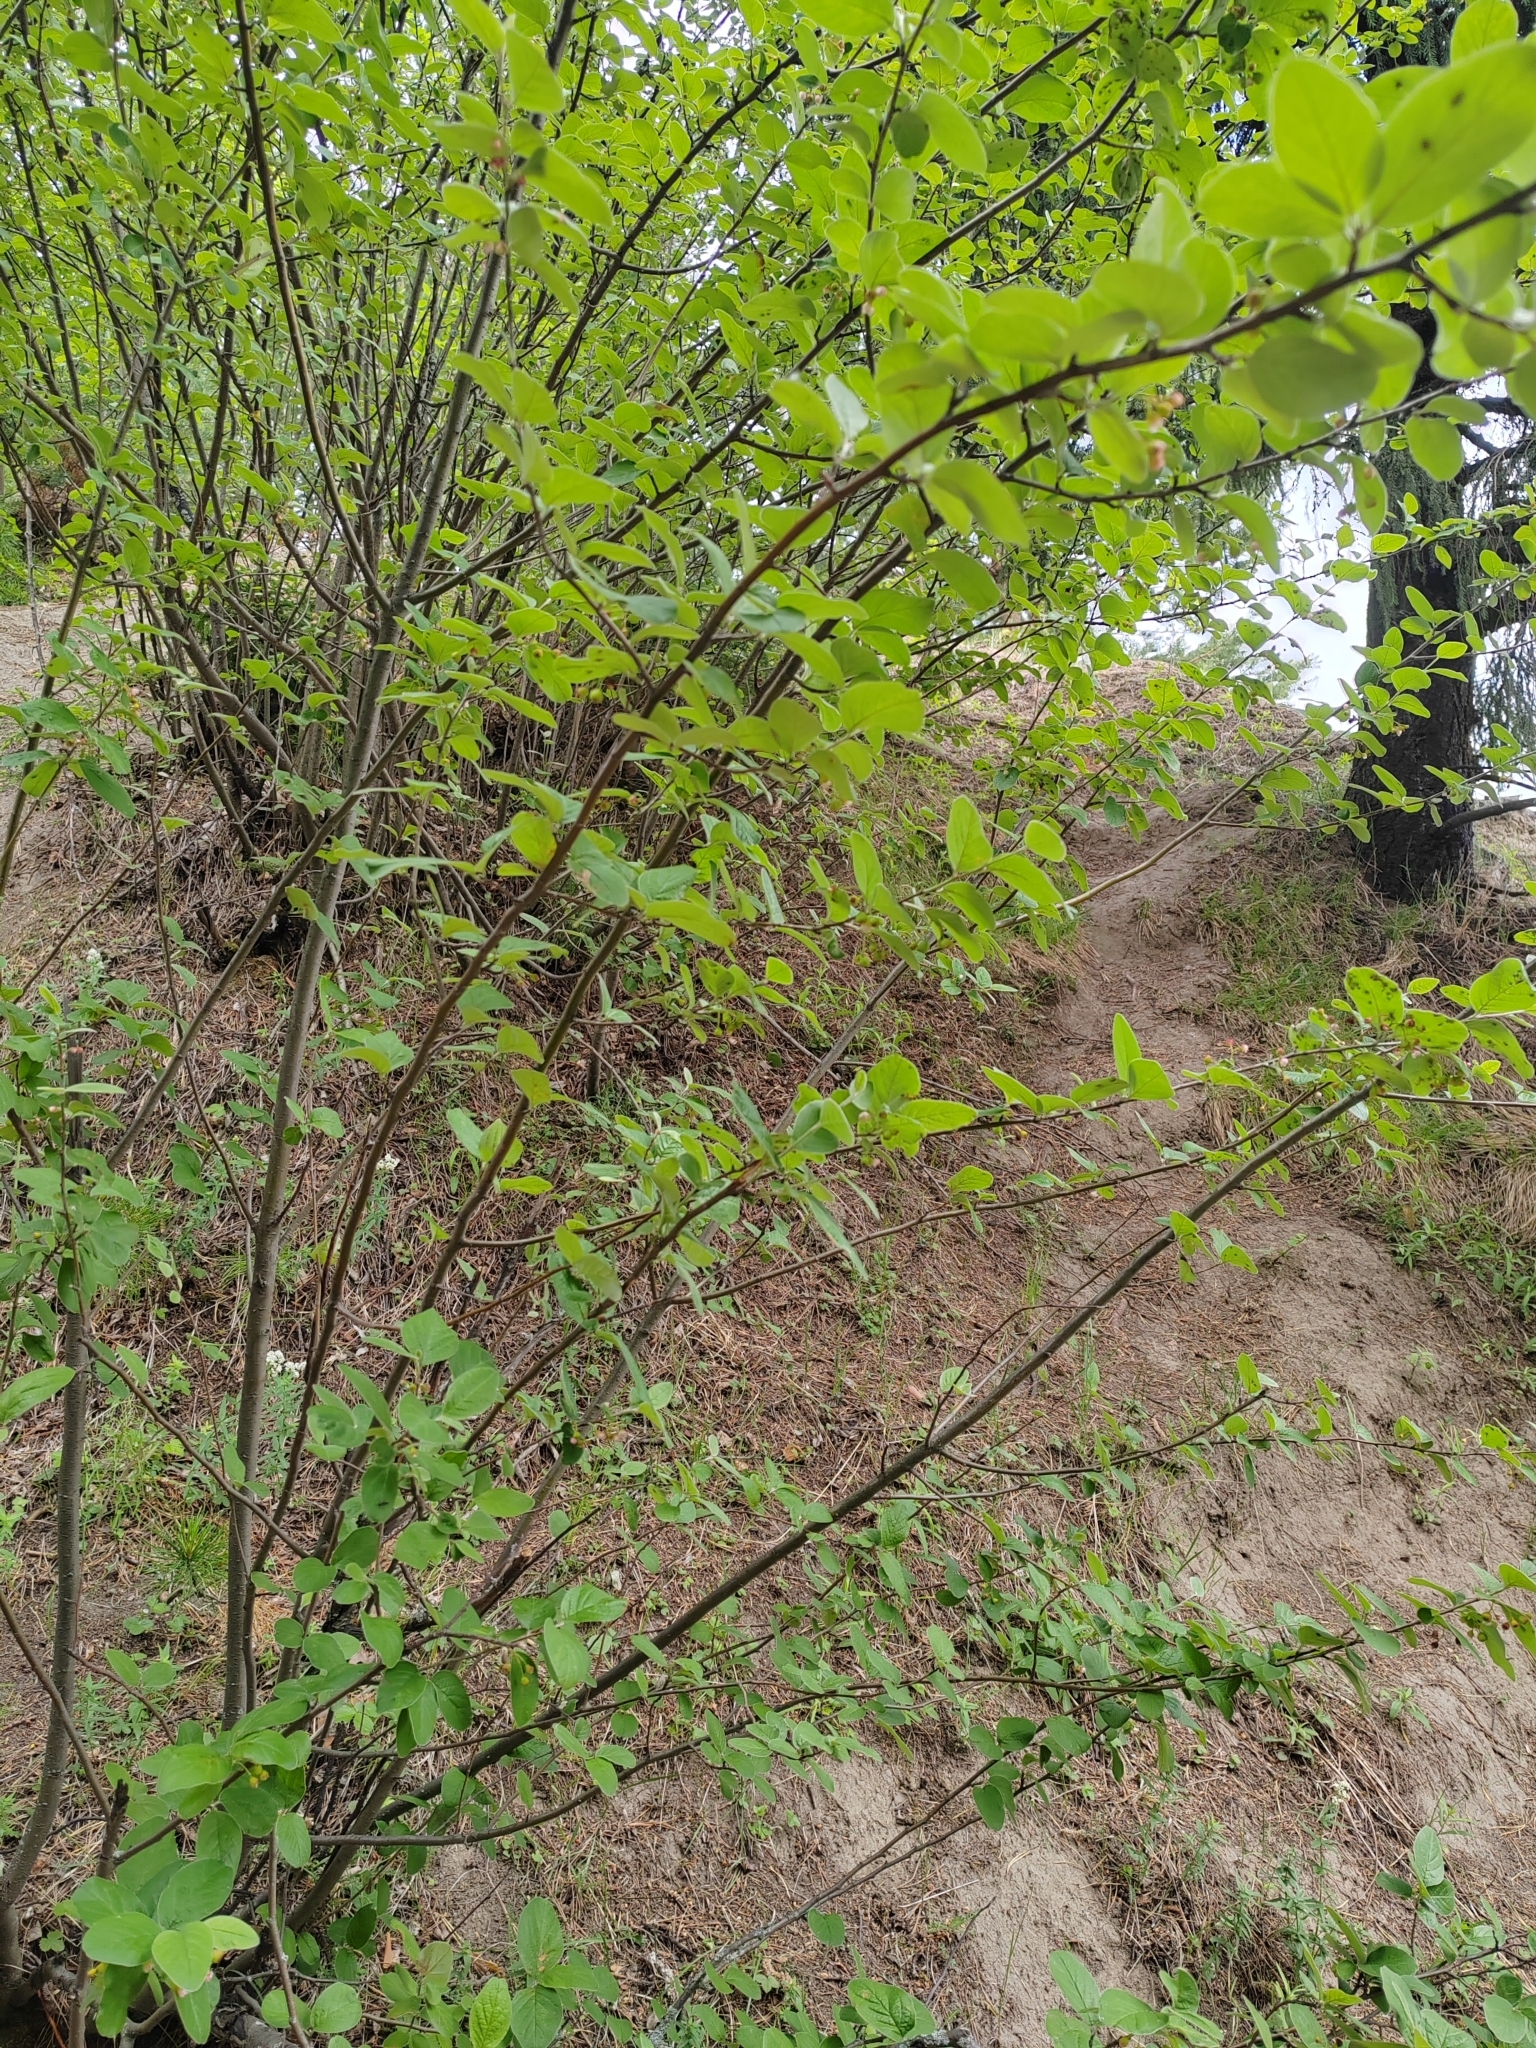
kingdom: Plantae
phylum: Tracheophyta
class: Magnoliopsida
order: Rosales
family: Rosaceae
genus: Cotoneaster
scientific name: Cotoneaster melanocarpus
